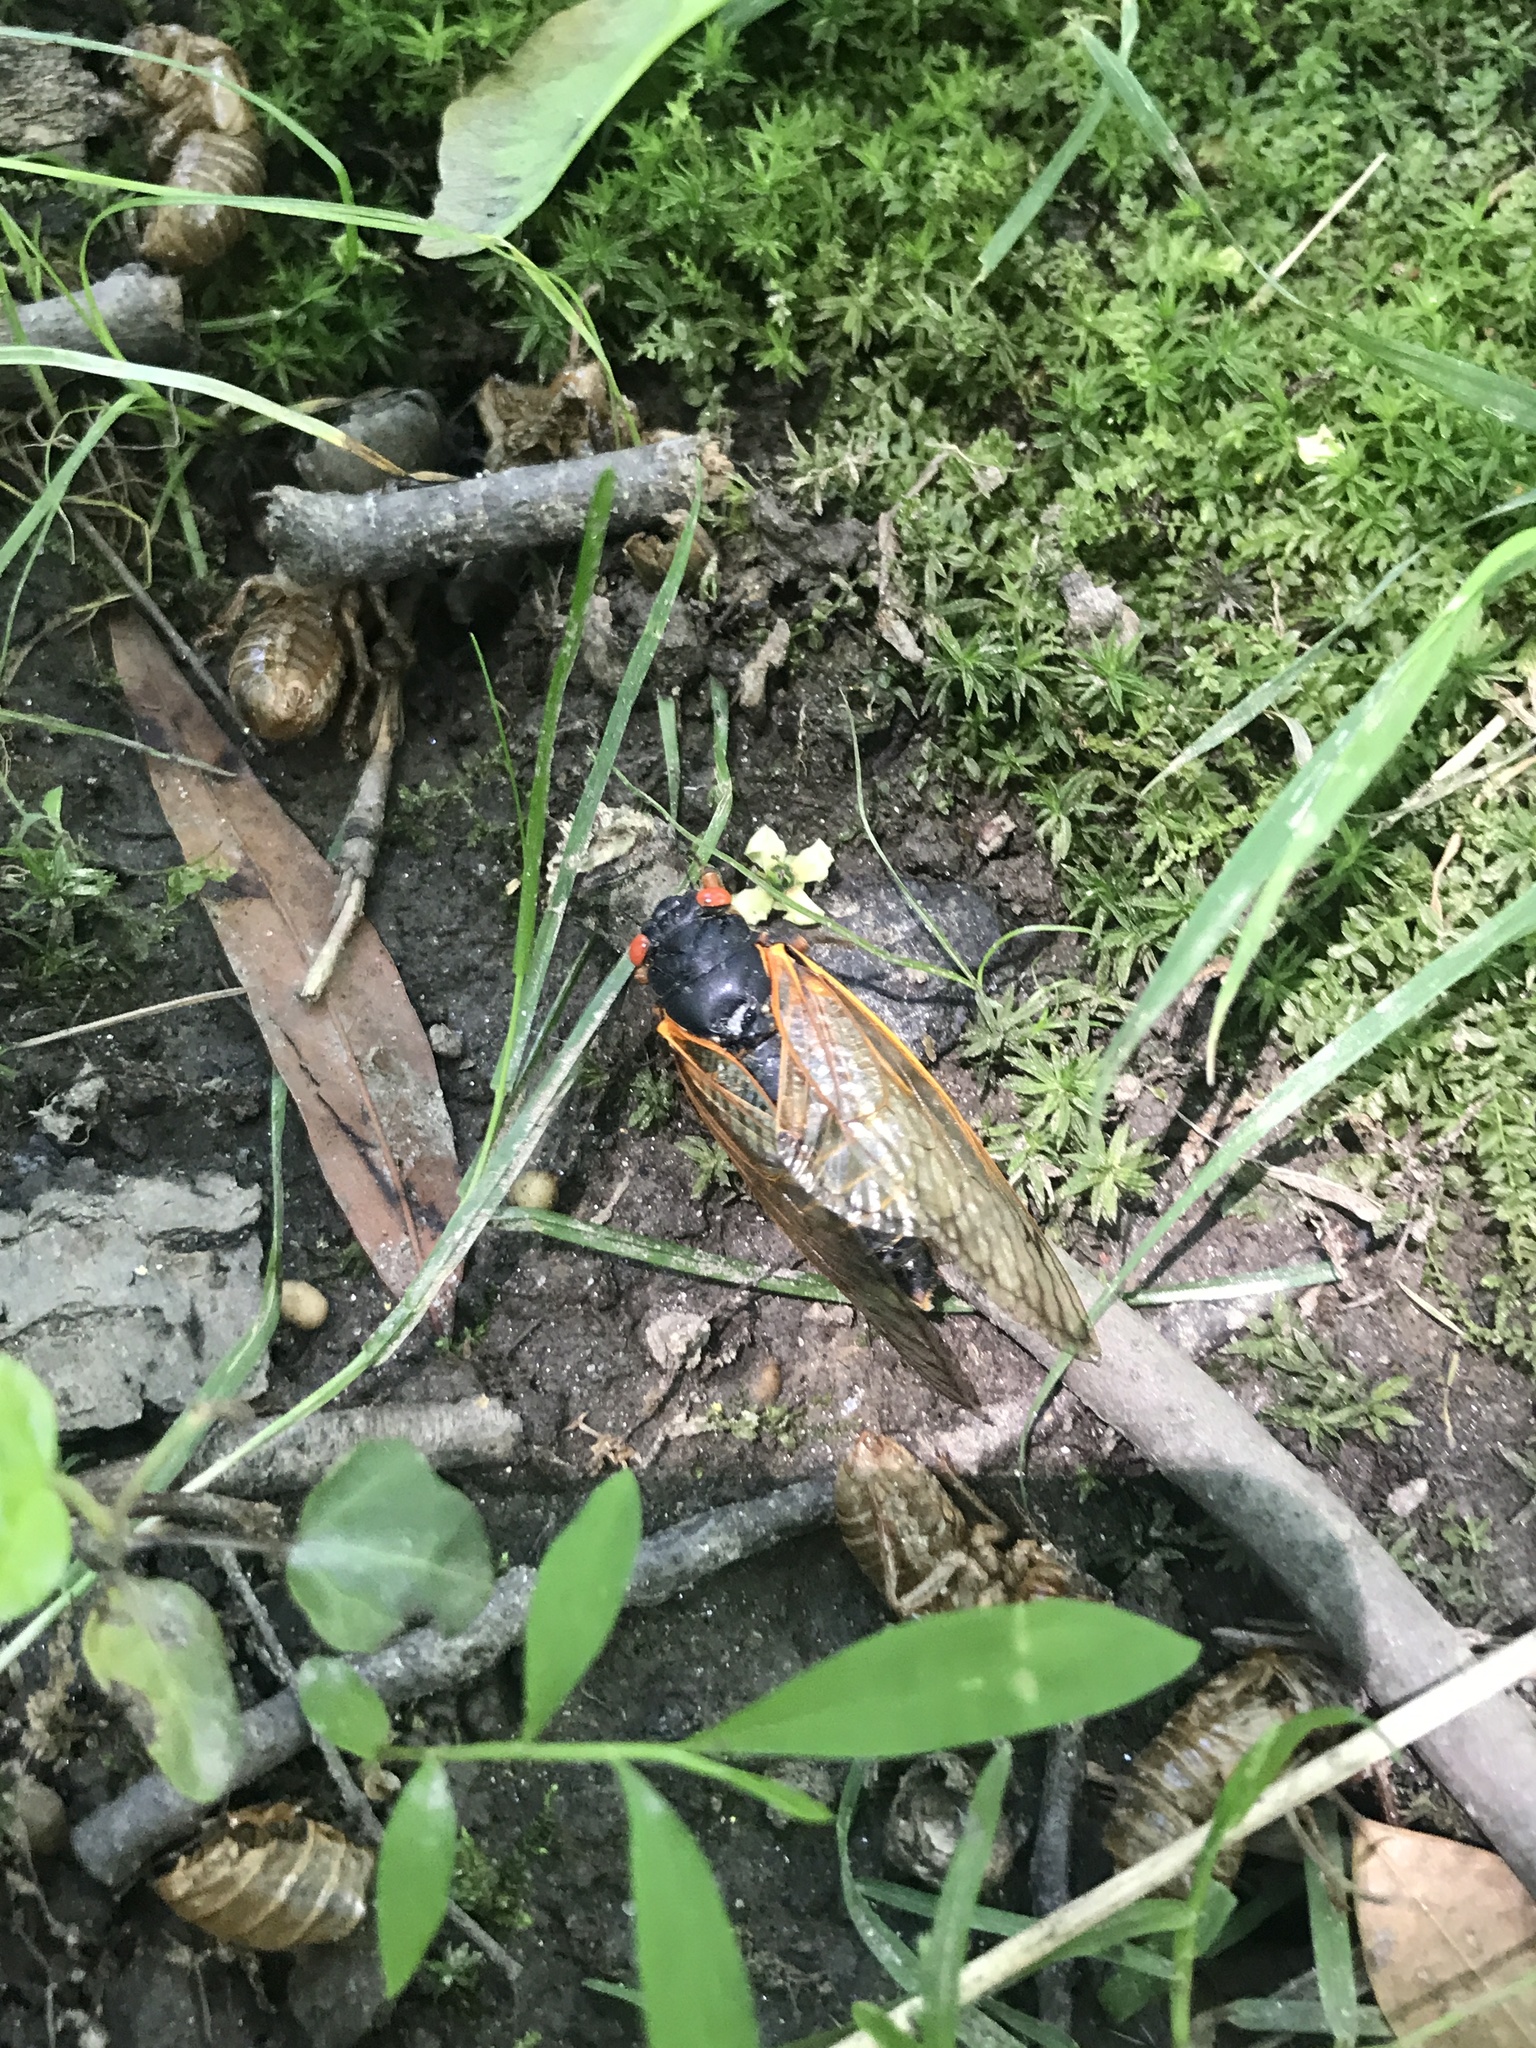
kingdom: Animalia
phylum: Arthropoda
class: Insecta
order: Hemiptera
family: Cicadidae
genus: Magicicada
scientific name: Magicicada
